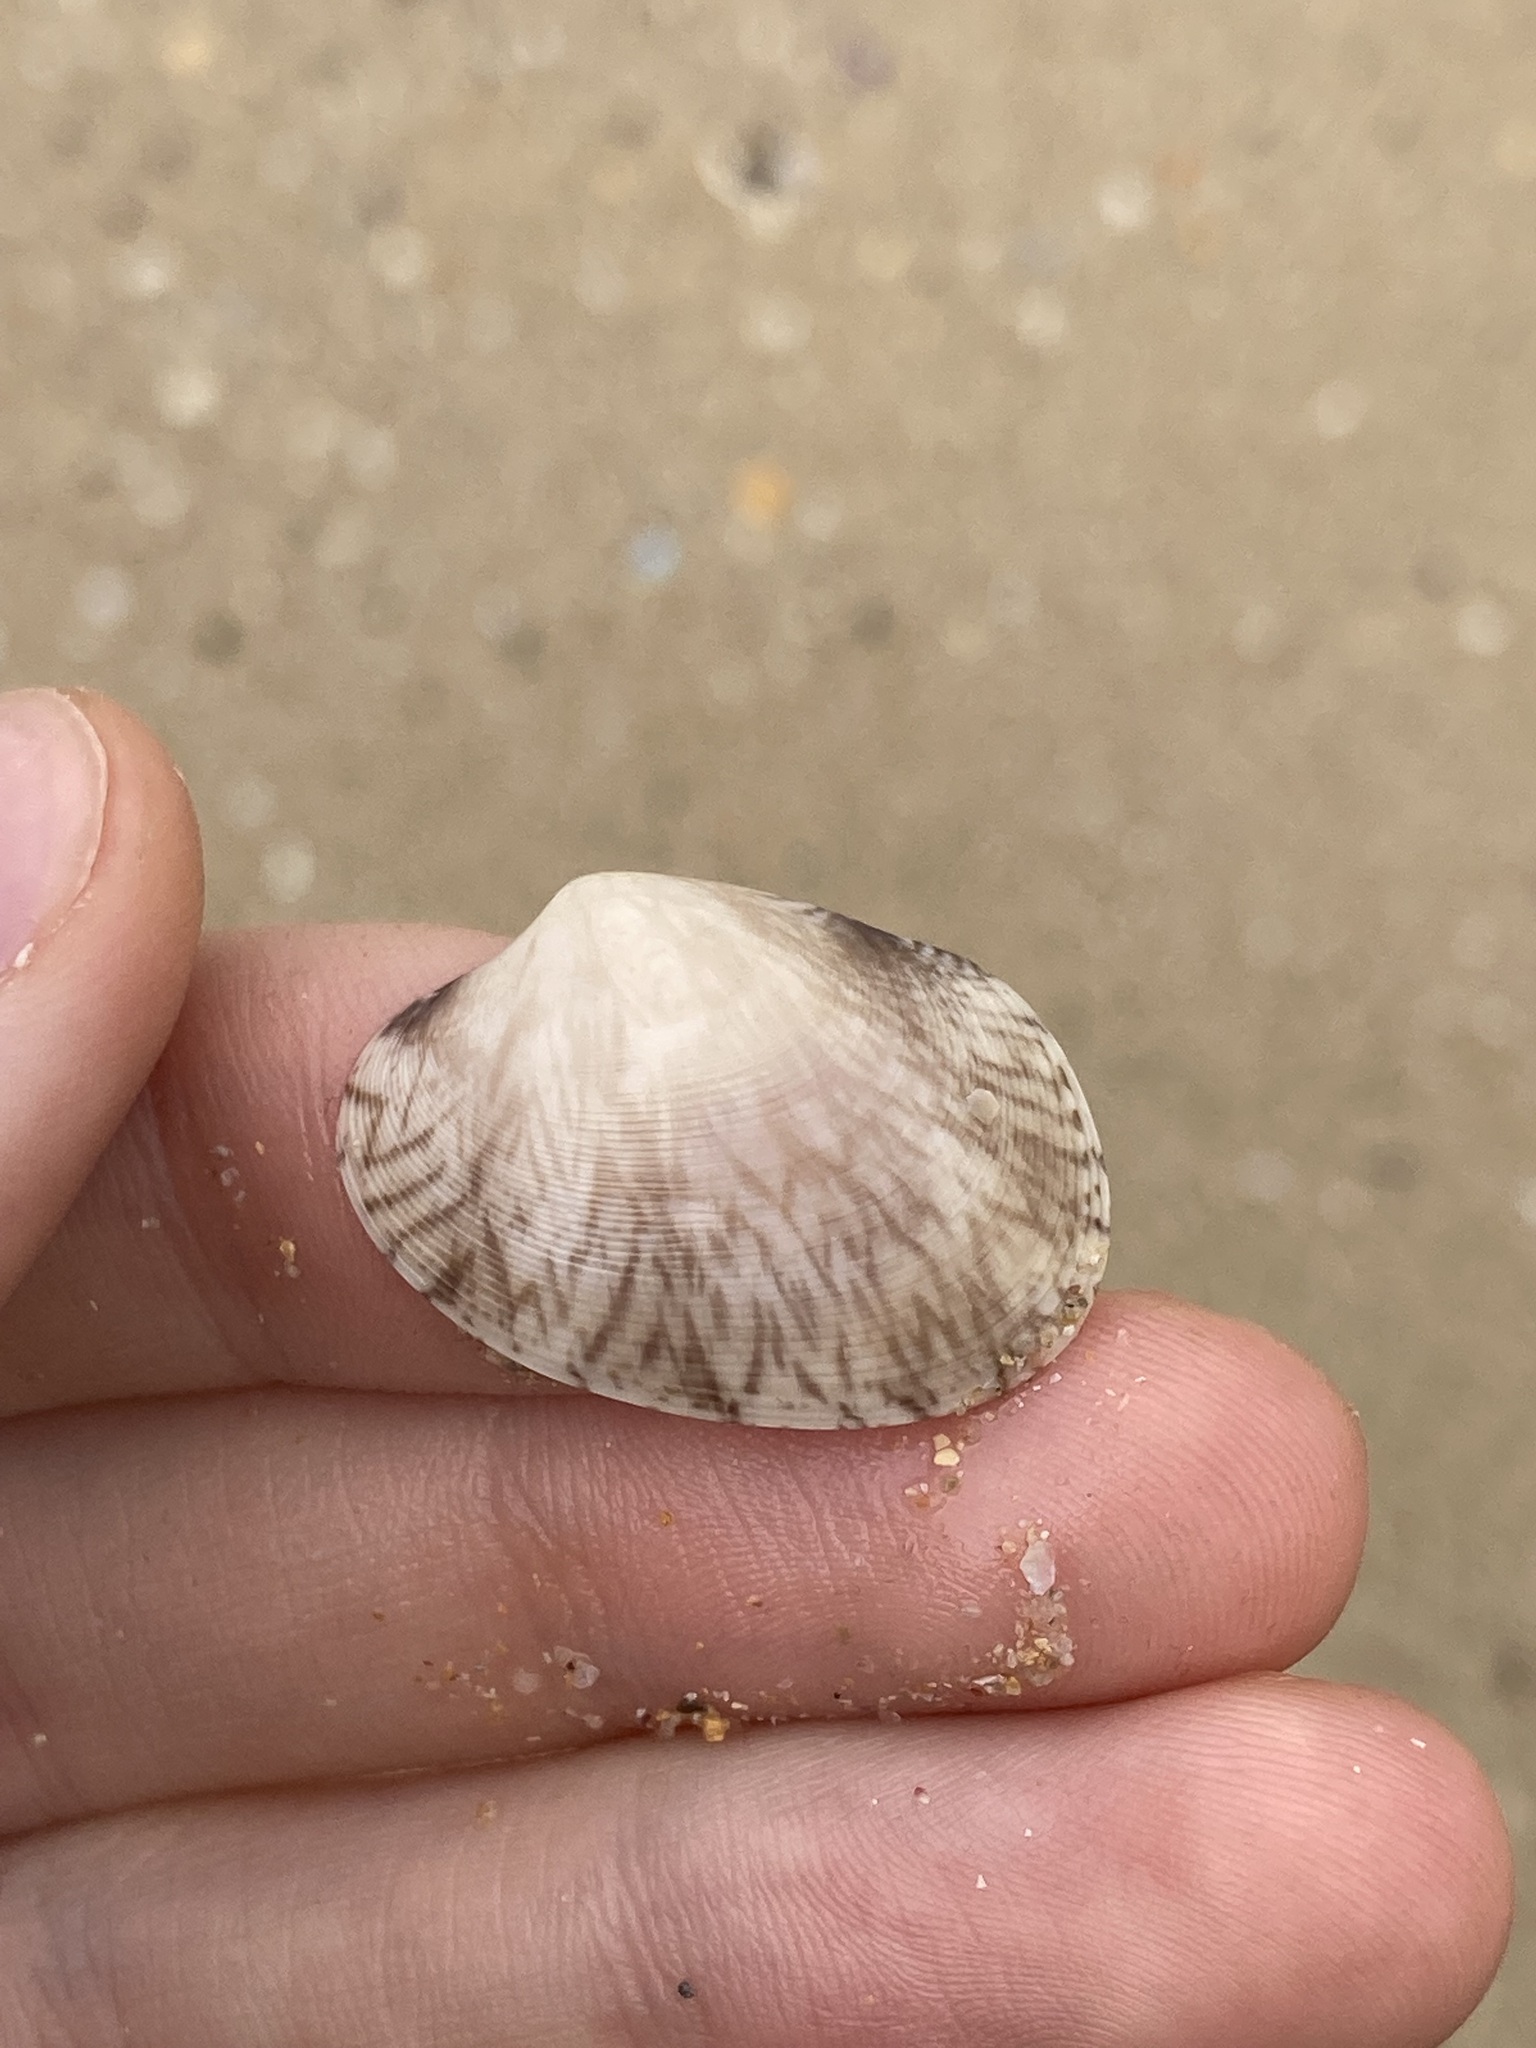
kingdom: Animalia
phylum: Mollusca
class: Bivalvia
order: Venerida
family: Veneridae
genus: Tapes
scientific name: Tapes conspersus
